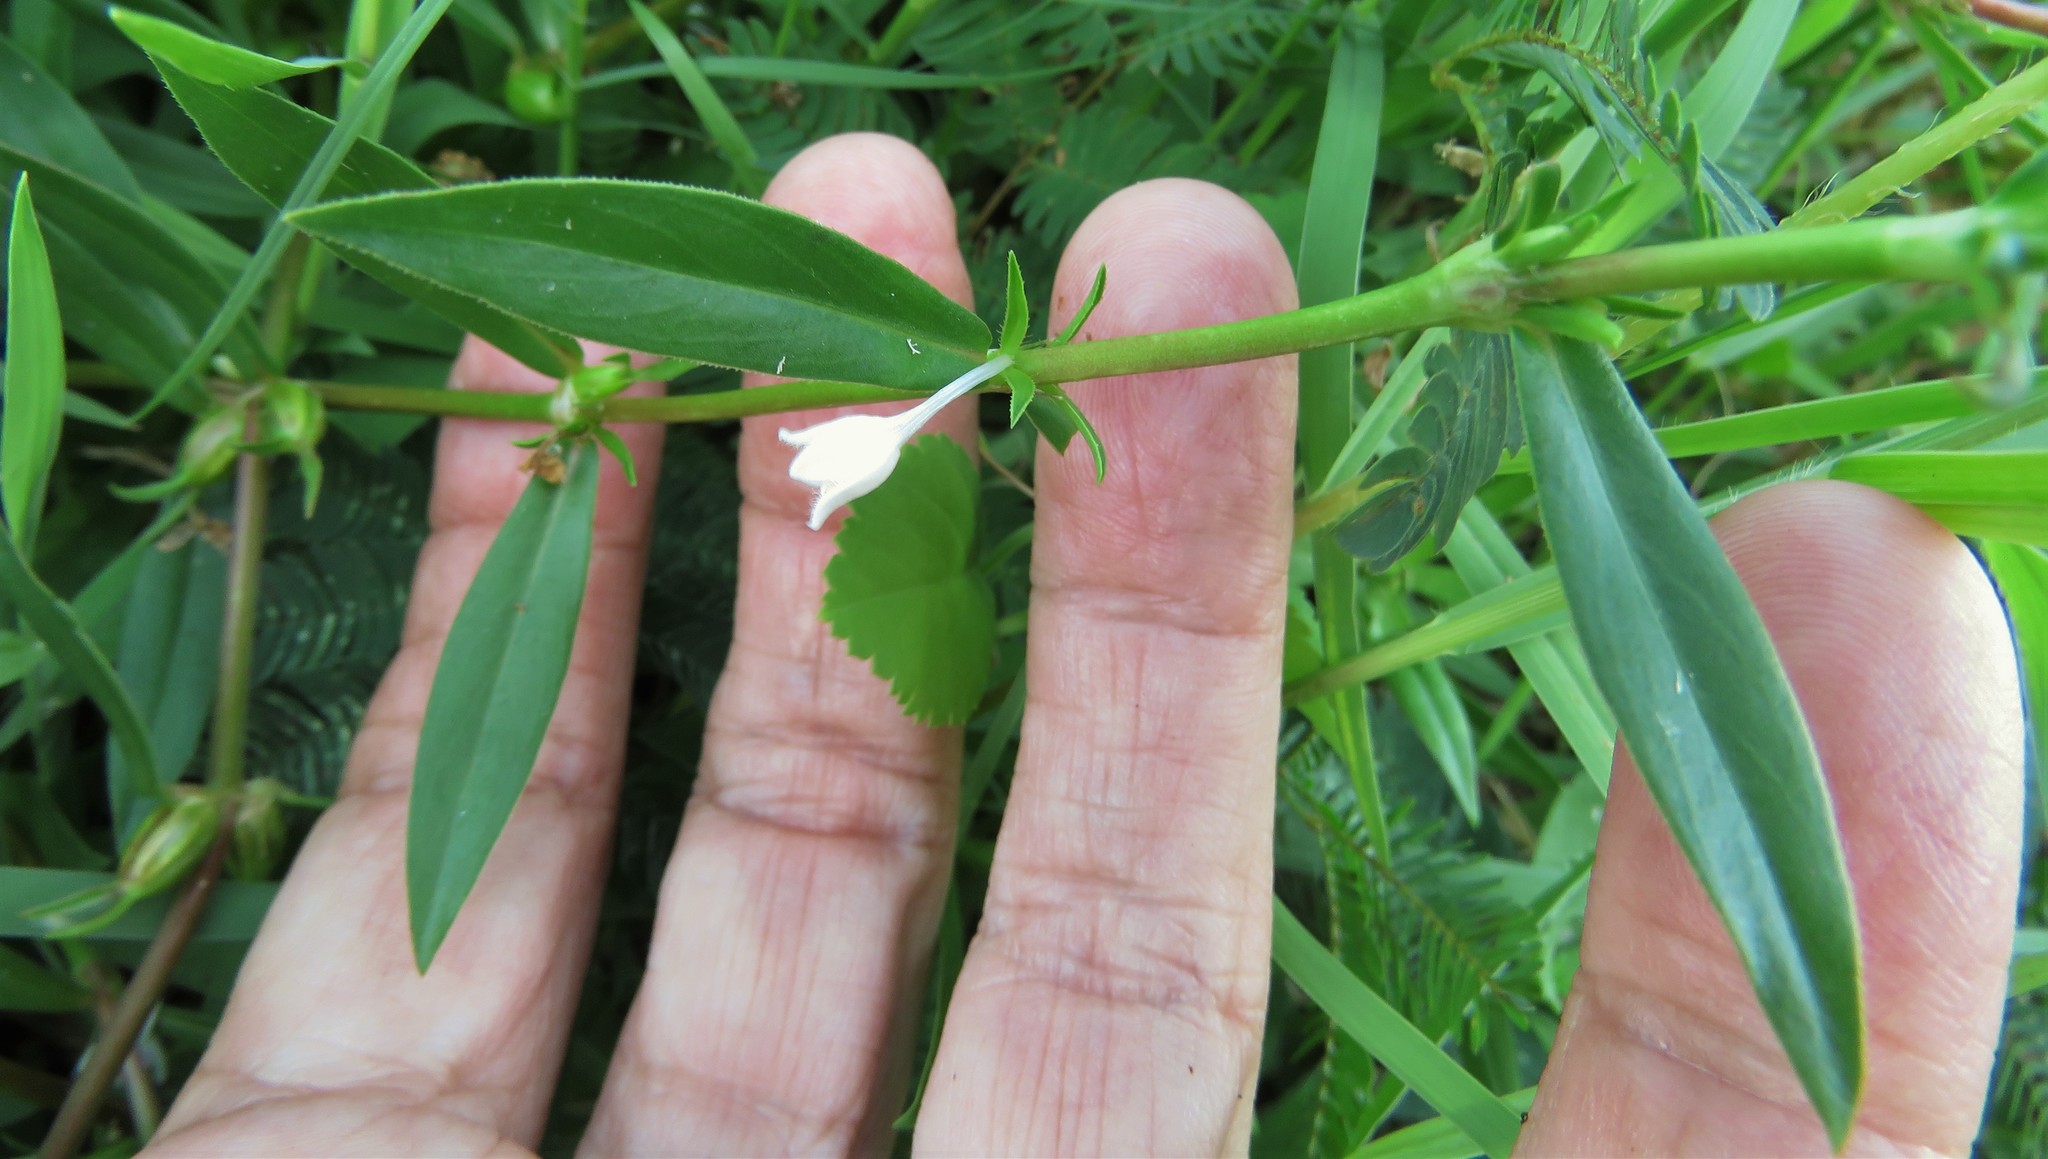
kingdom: Plantae
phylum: Tracheophyta
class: Magnoliopsida
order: Gentianales
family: Rubiaceae
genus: Diodia
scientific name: Diodia virginiana
